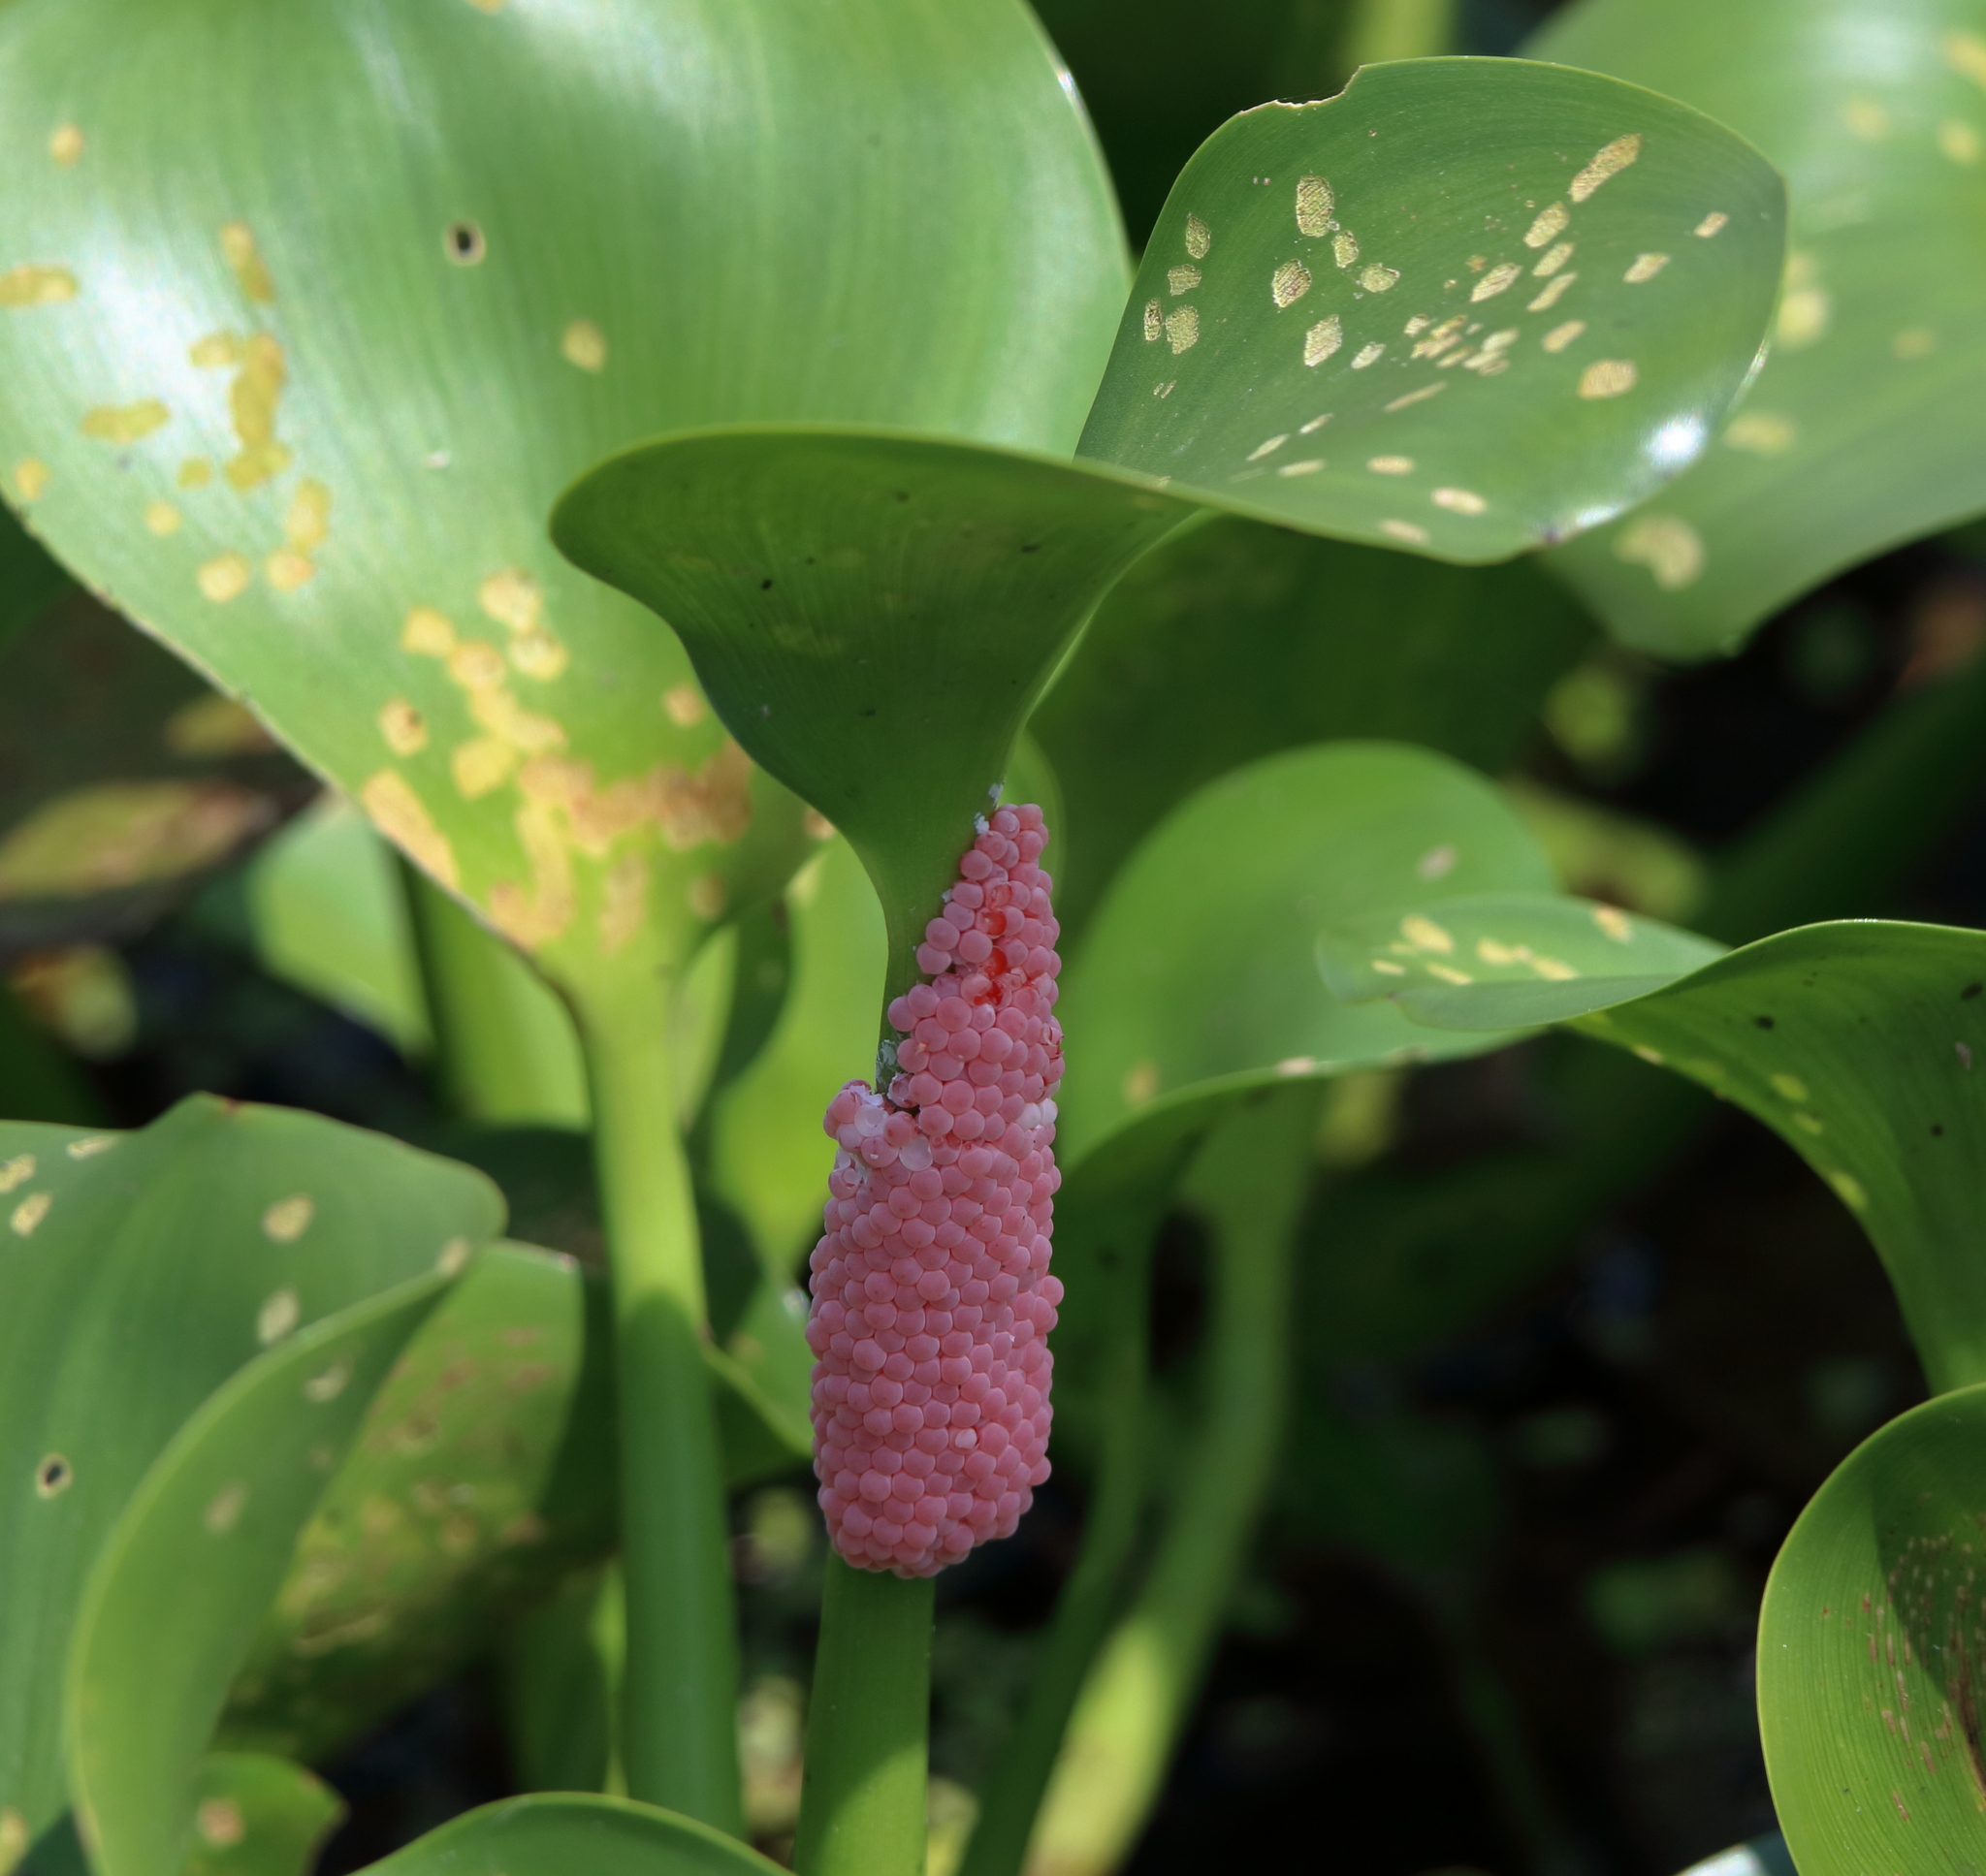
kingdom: Animalia
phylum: Mollusca
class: Gastropoda
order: Architaenioglossa
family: Ampullariidae
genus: Pomacea
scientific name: Pomacea maculata
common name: Giant applesnail
